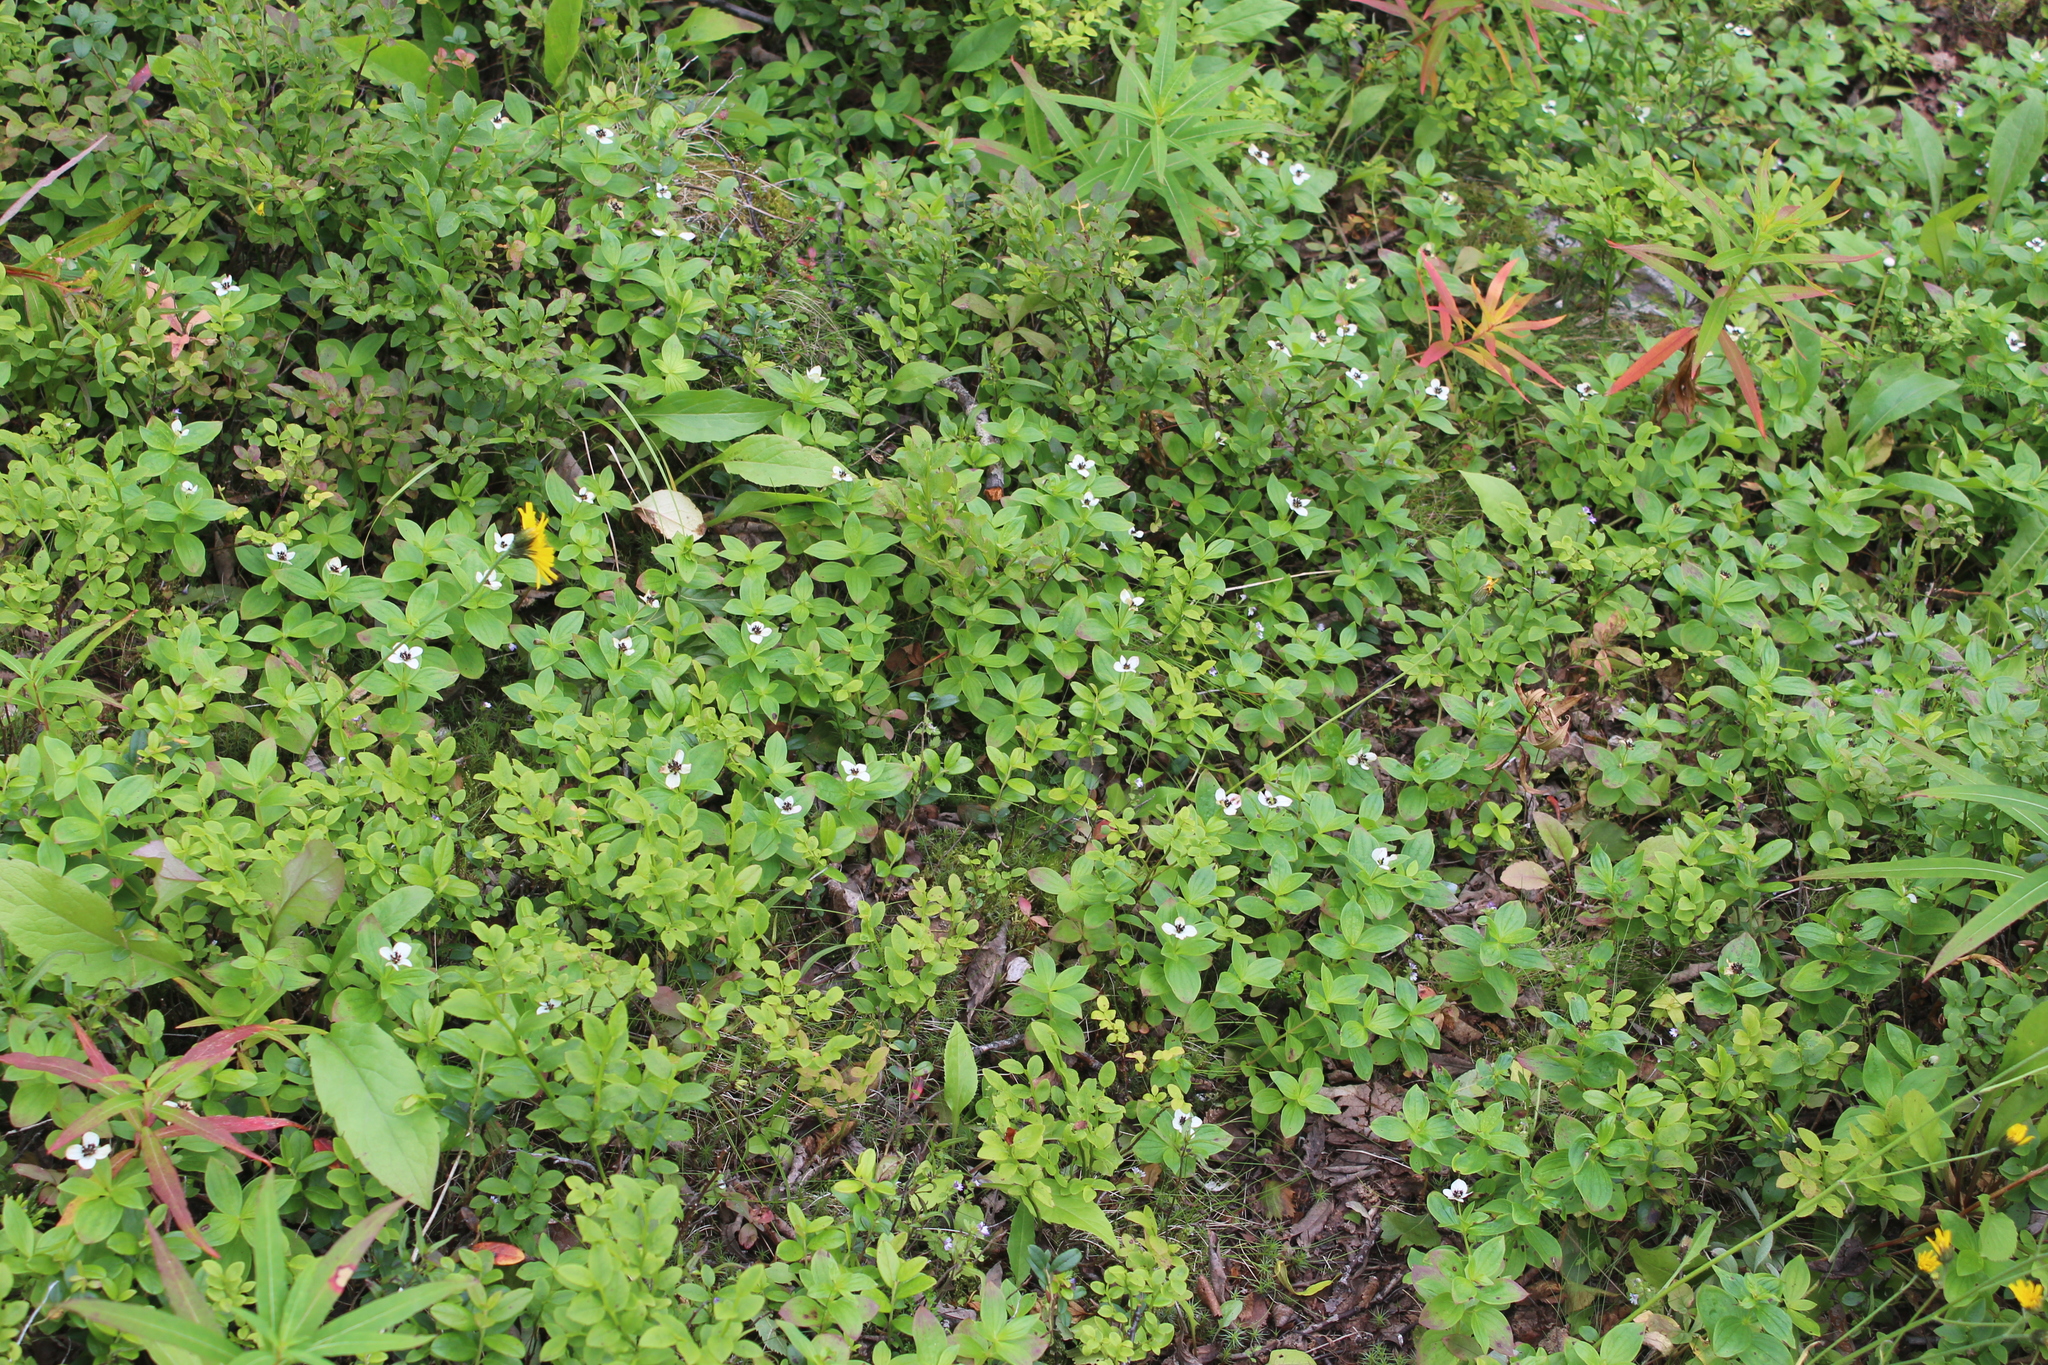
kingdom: Plantae
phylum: Tracheophyta
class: Magnoliopsida
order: Cornales
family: Cornaceae
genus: Cornus
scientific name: Cornus suecica
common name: Dwarf cornel
